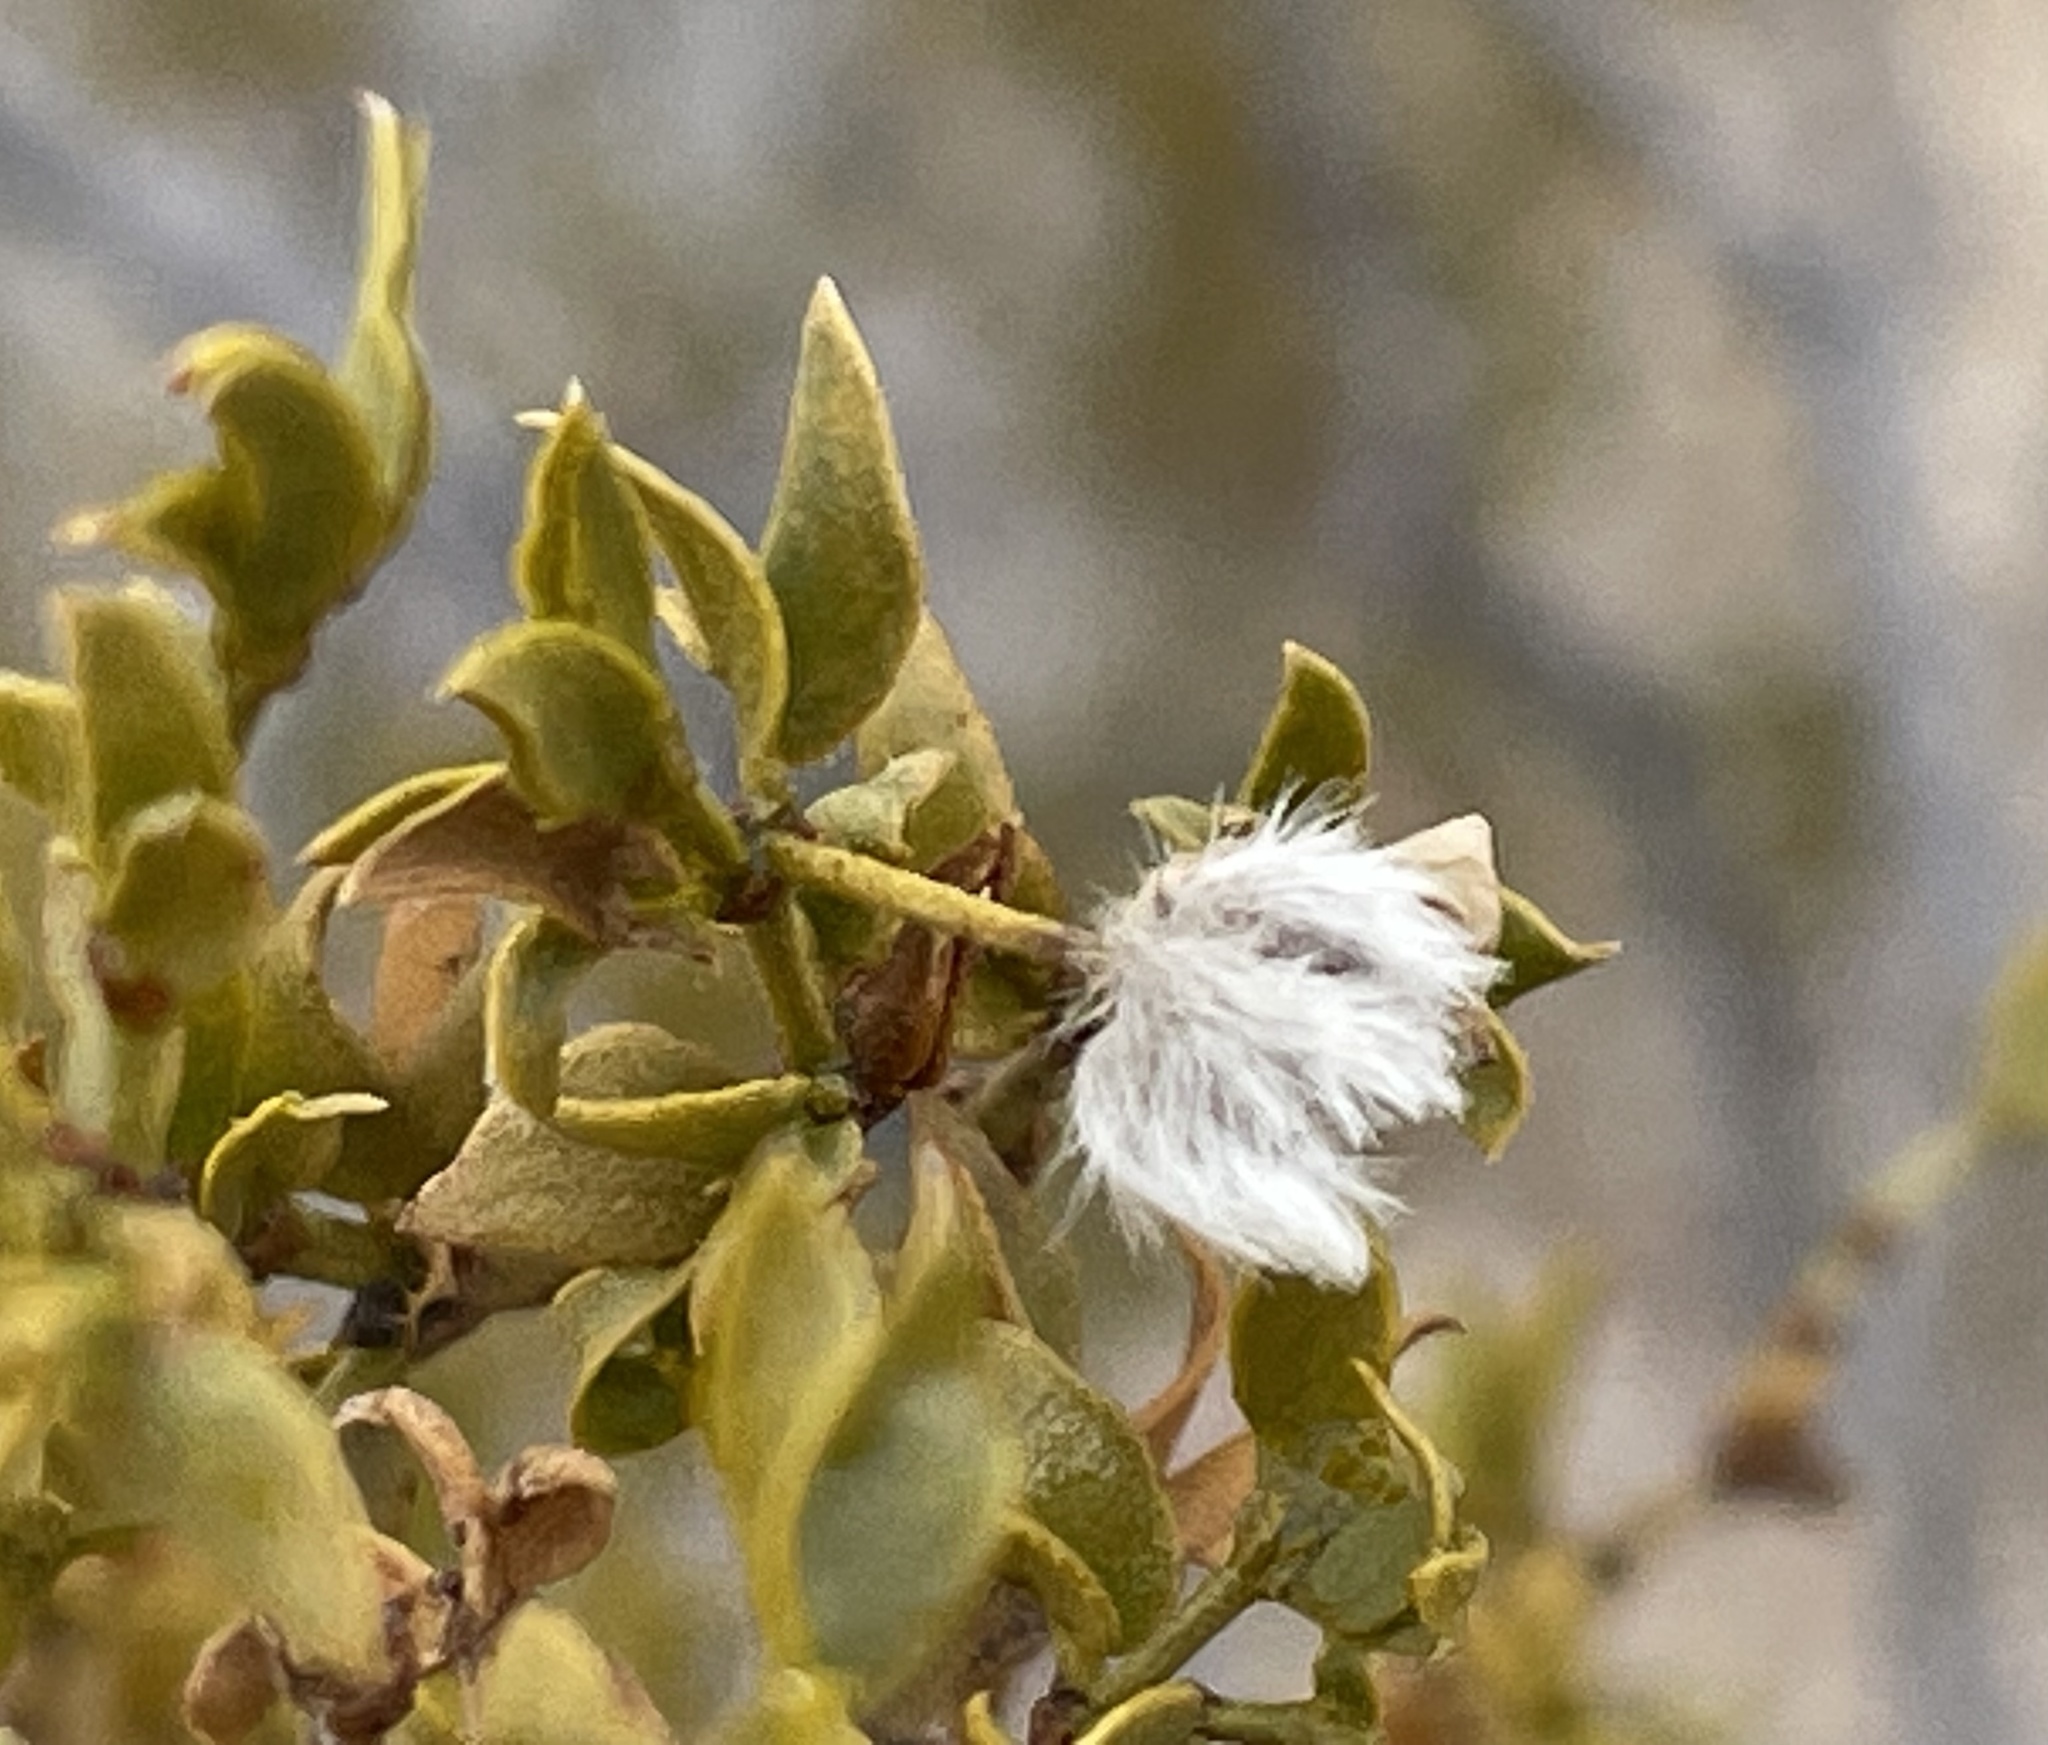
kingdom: Plantae
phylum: Tracheophyta
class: Magnoliopsida
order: Zygophyllales
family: Zygophyllaceae
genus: Larrea
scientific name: Larrea tridentata
